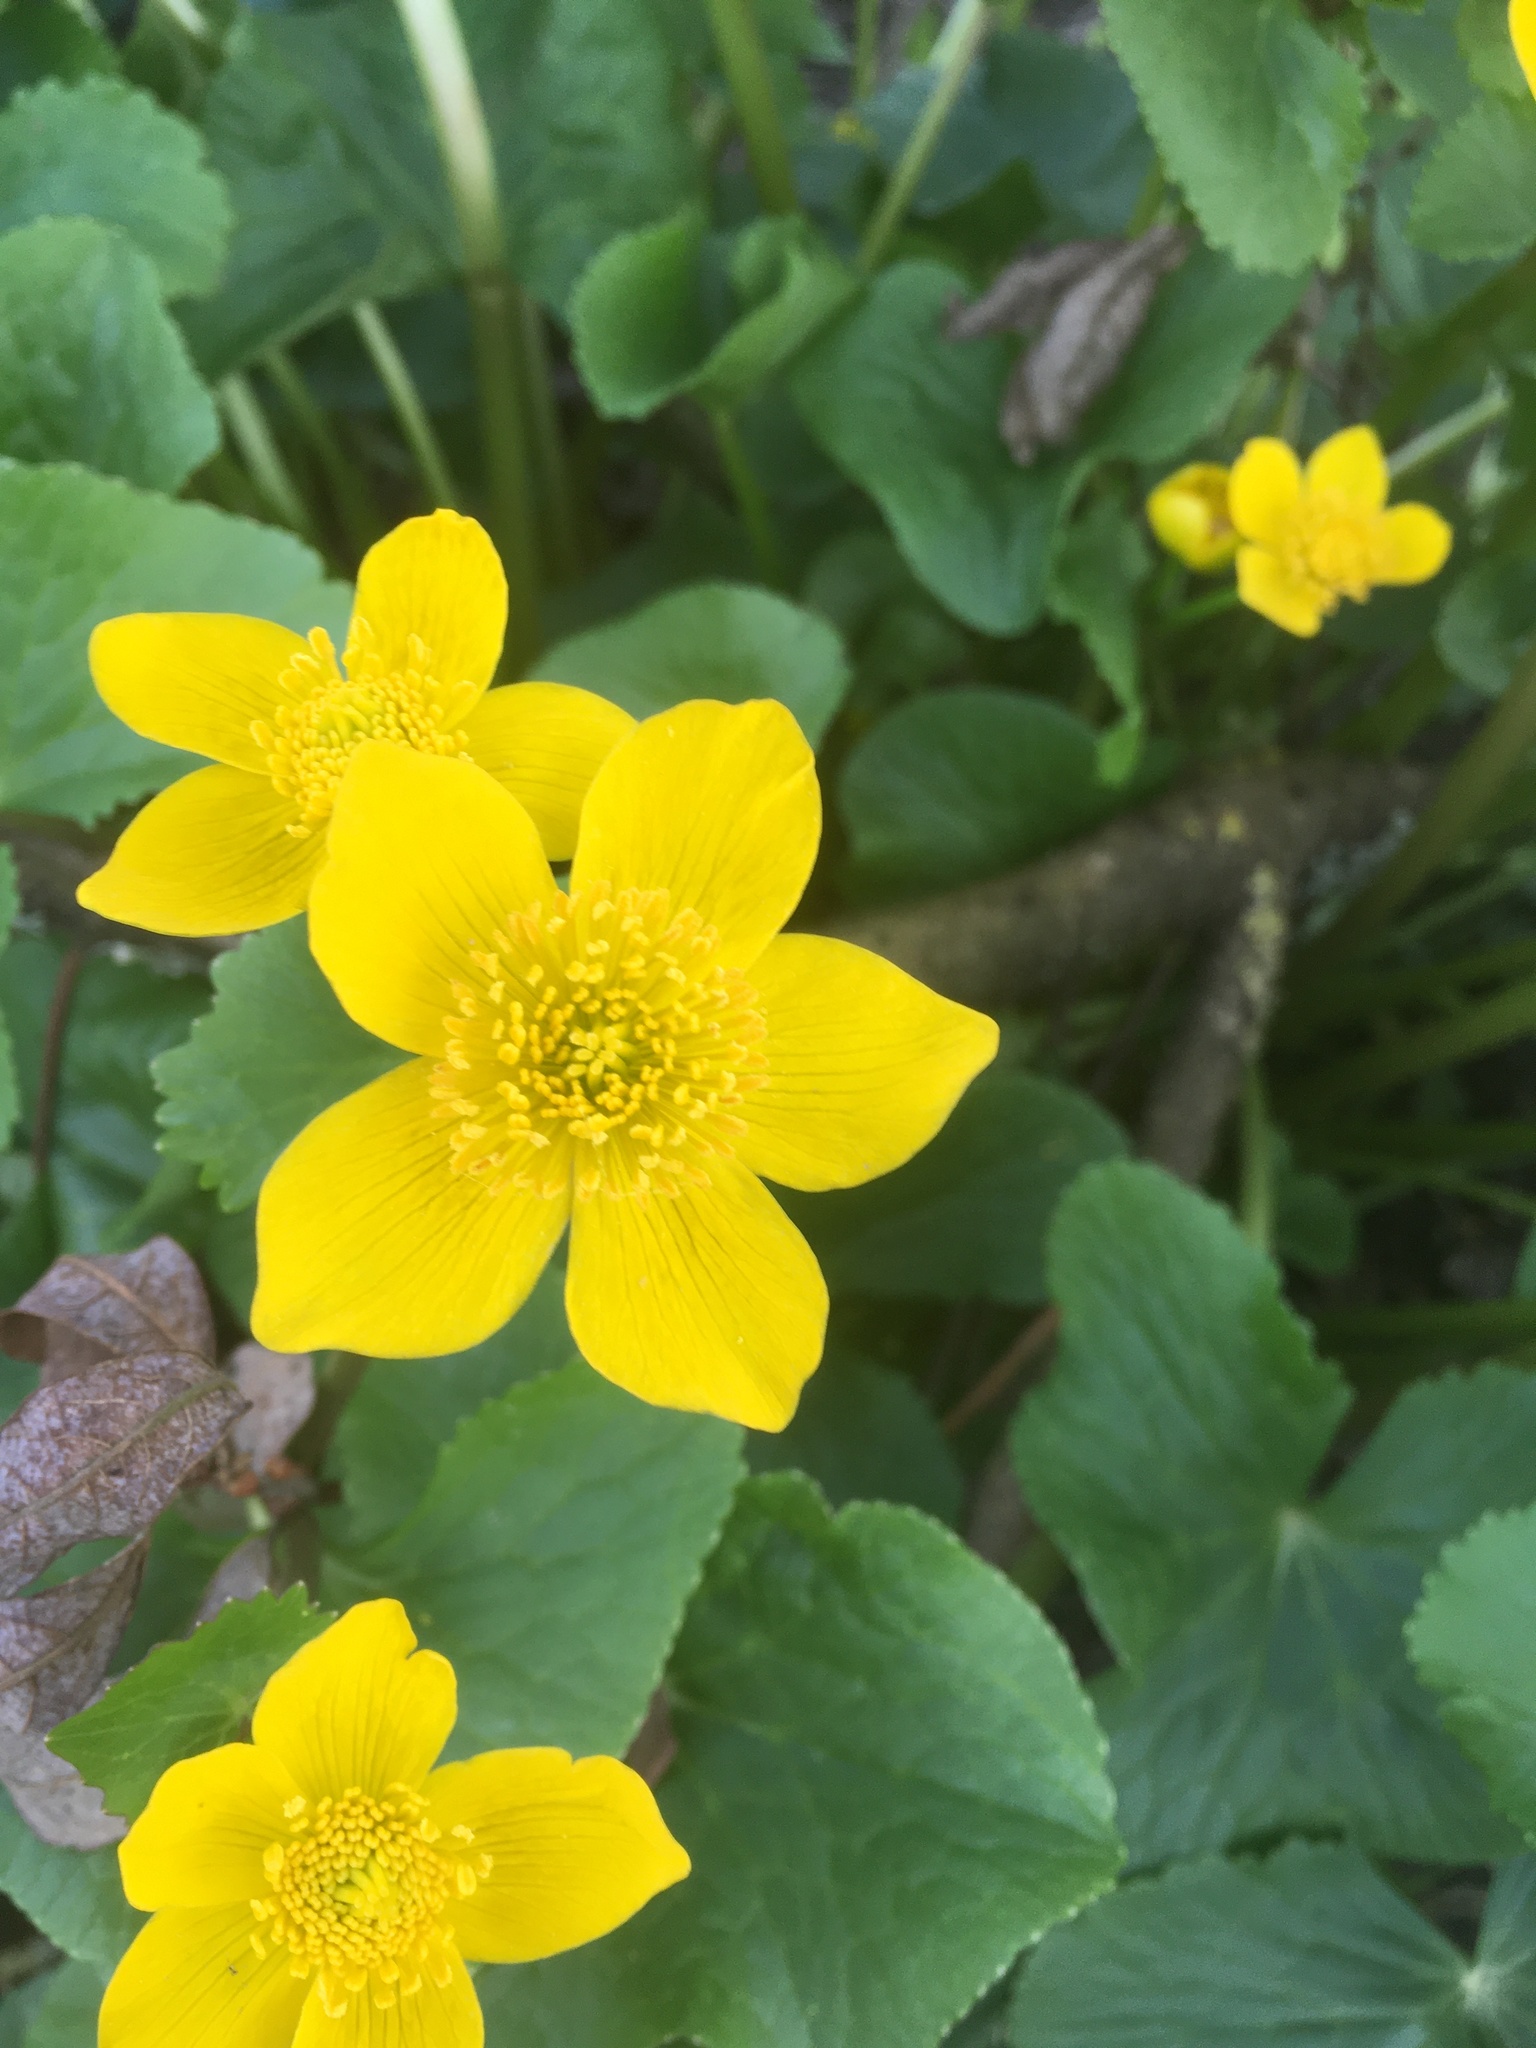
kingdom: Plantae
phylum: Tracheophyta
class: Magnoliopsida
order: Ranunculales
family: Ranunculaceae
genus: Caltha
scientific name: Caltha palustris
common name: Marsh marigold
